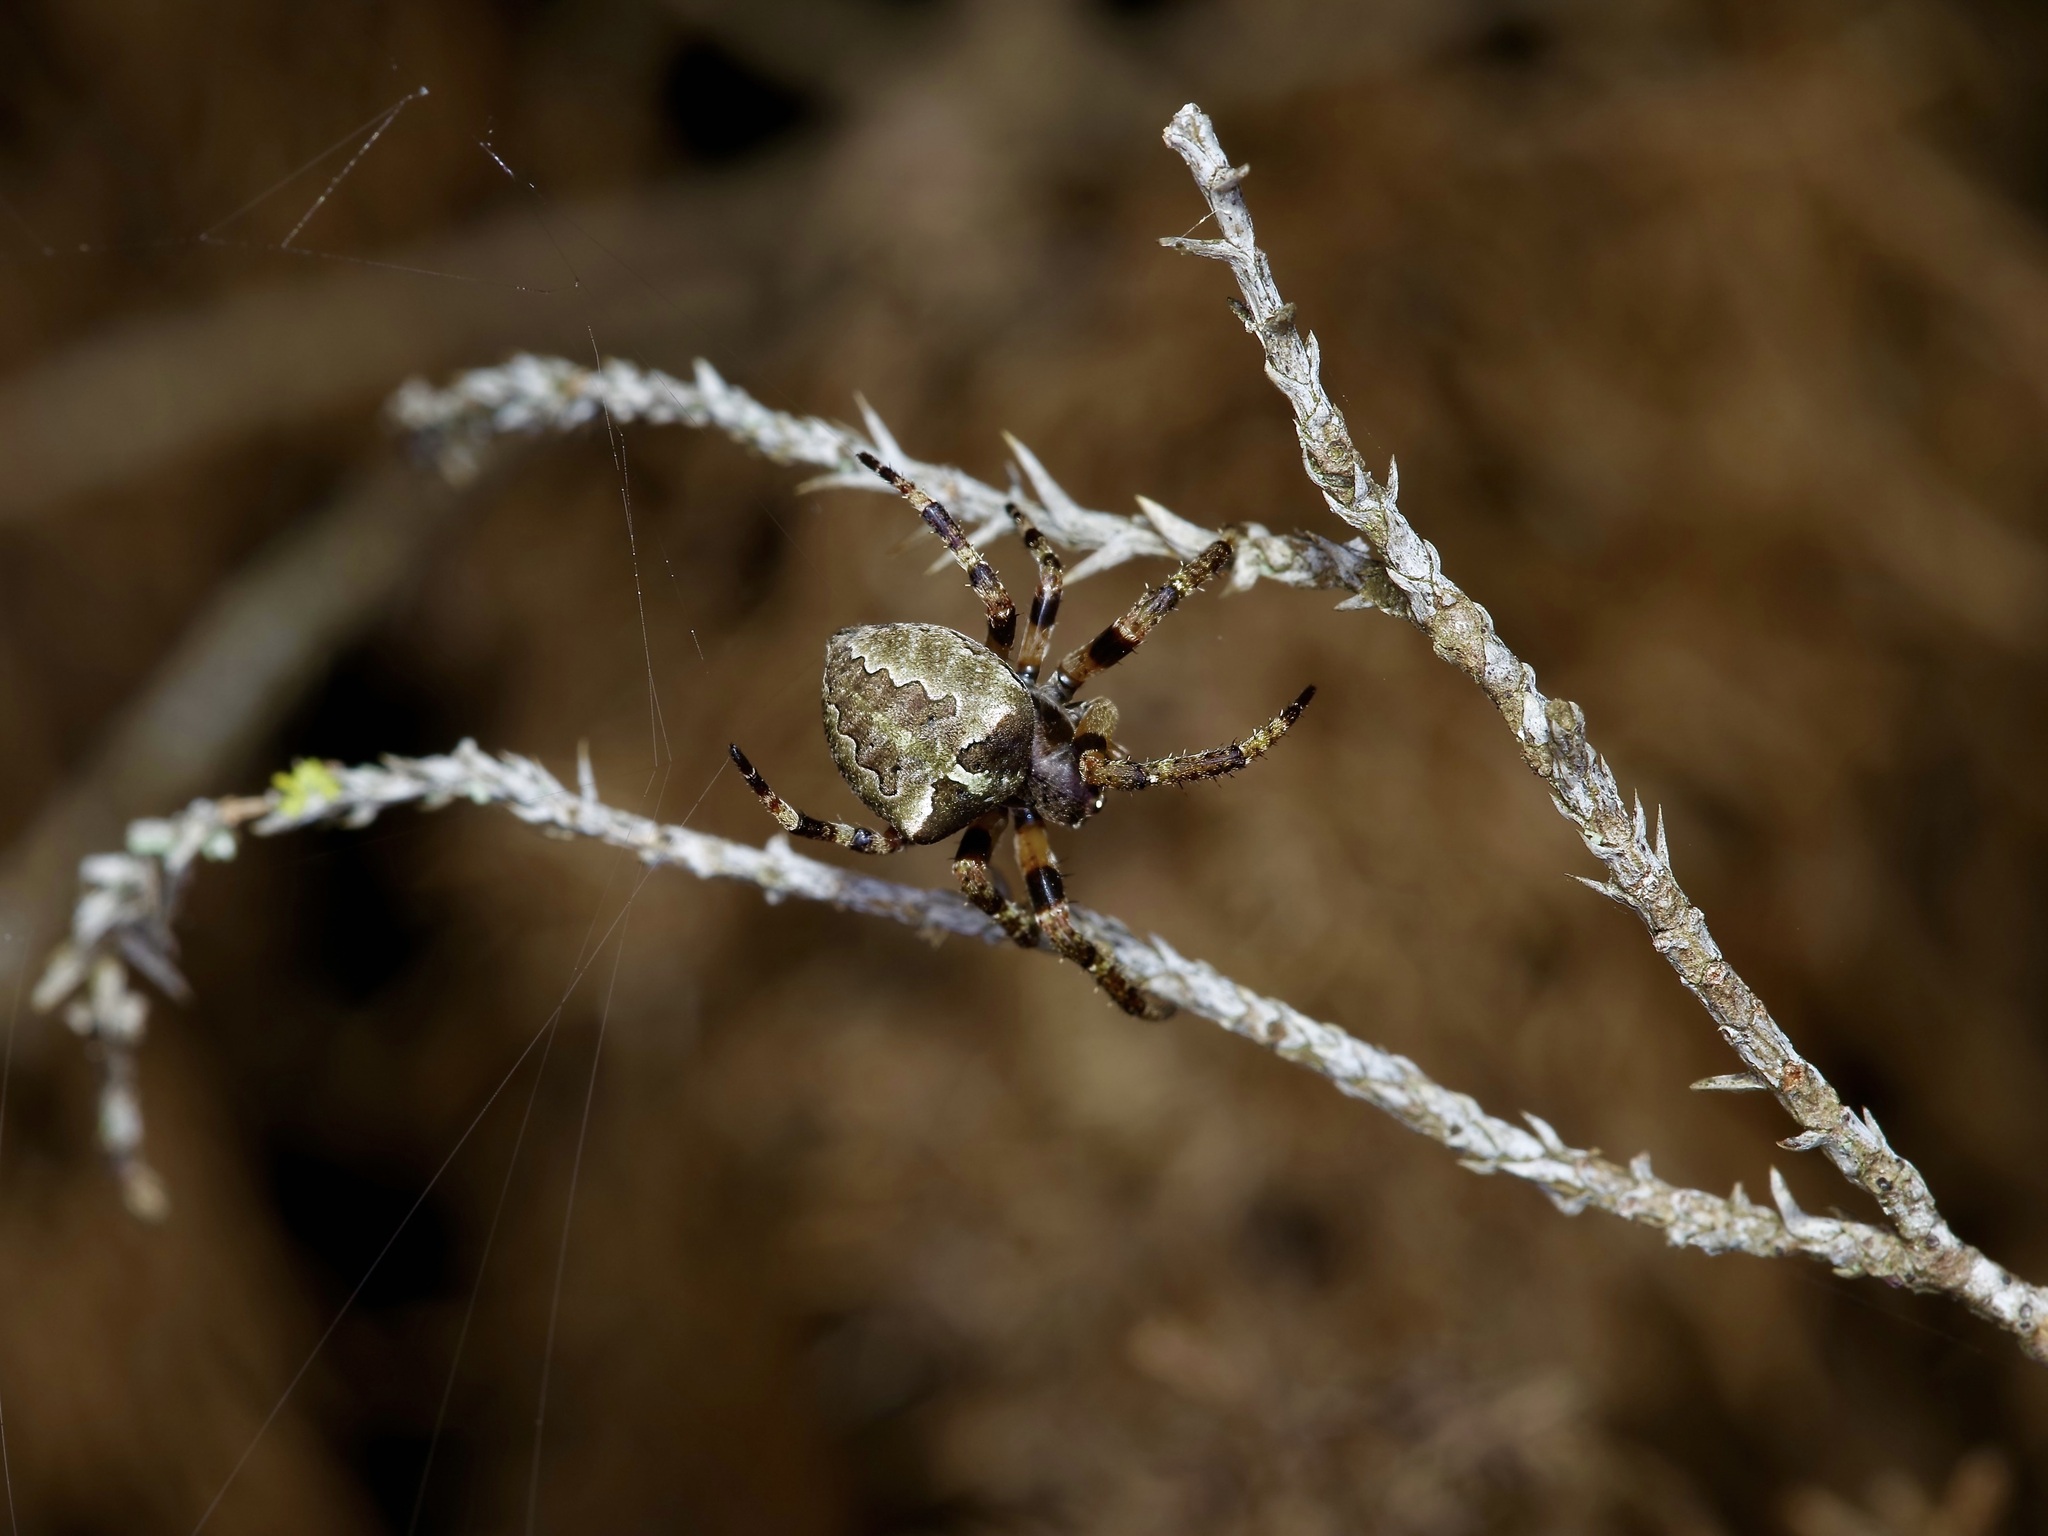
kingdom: Animalia
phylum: Arthropoda
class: Arachnida
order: Araneae
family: Araneidae
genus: Araneus
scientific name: Araneus bicentenarius
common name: Giant lichen orbweaver
